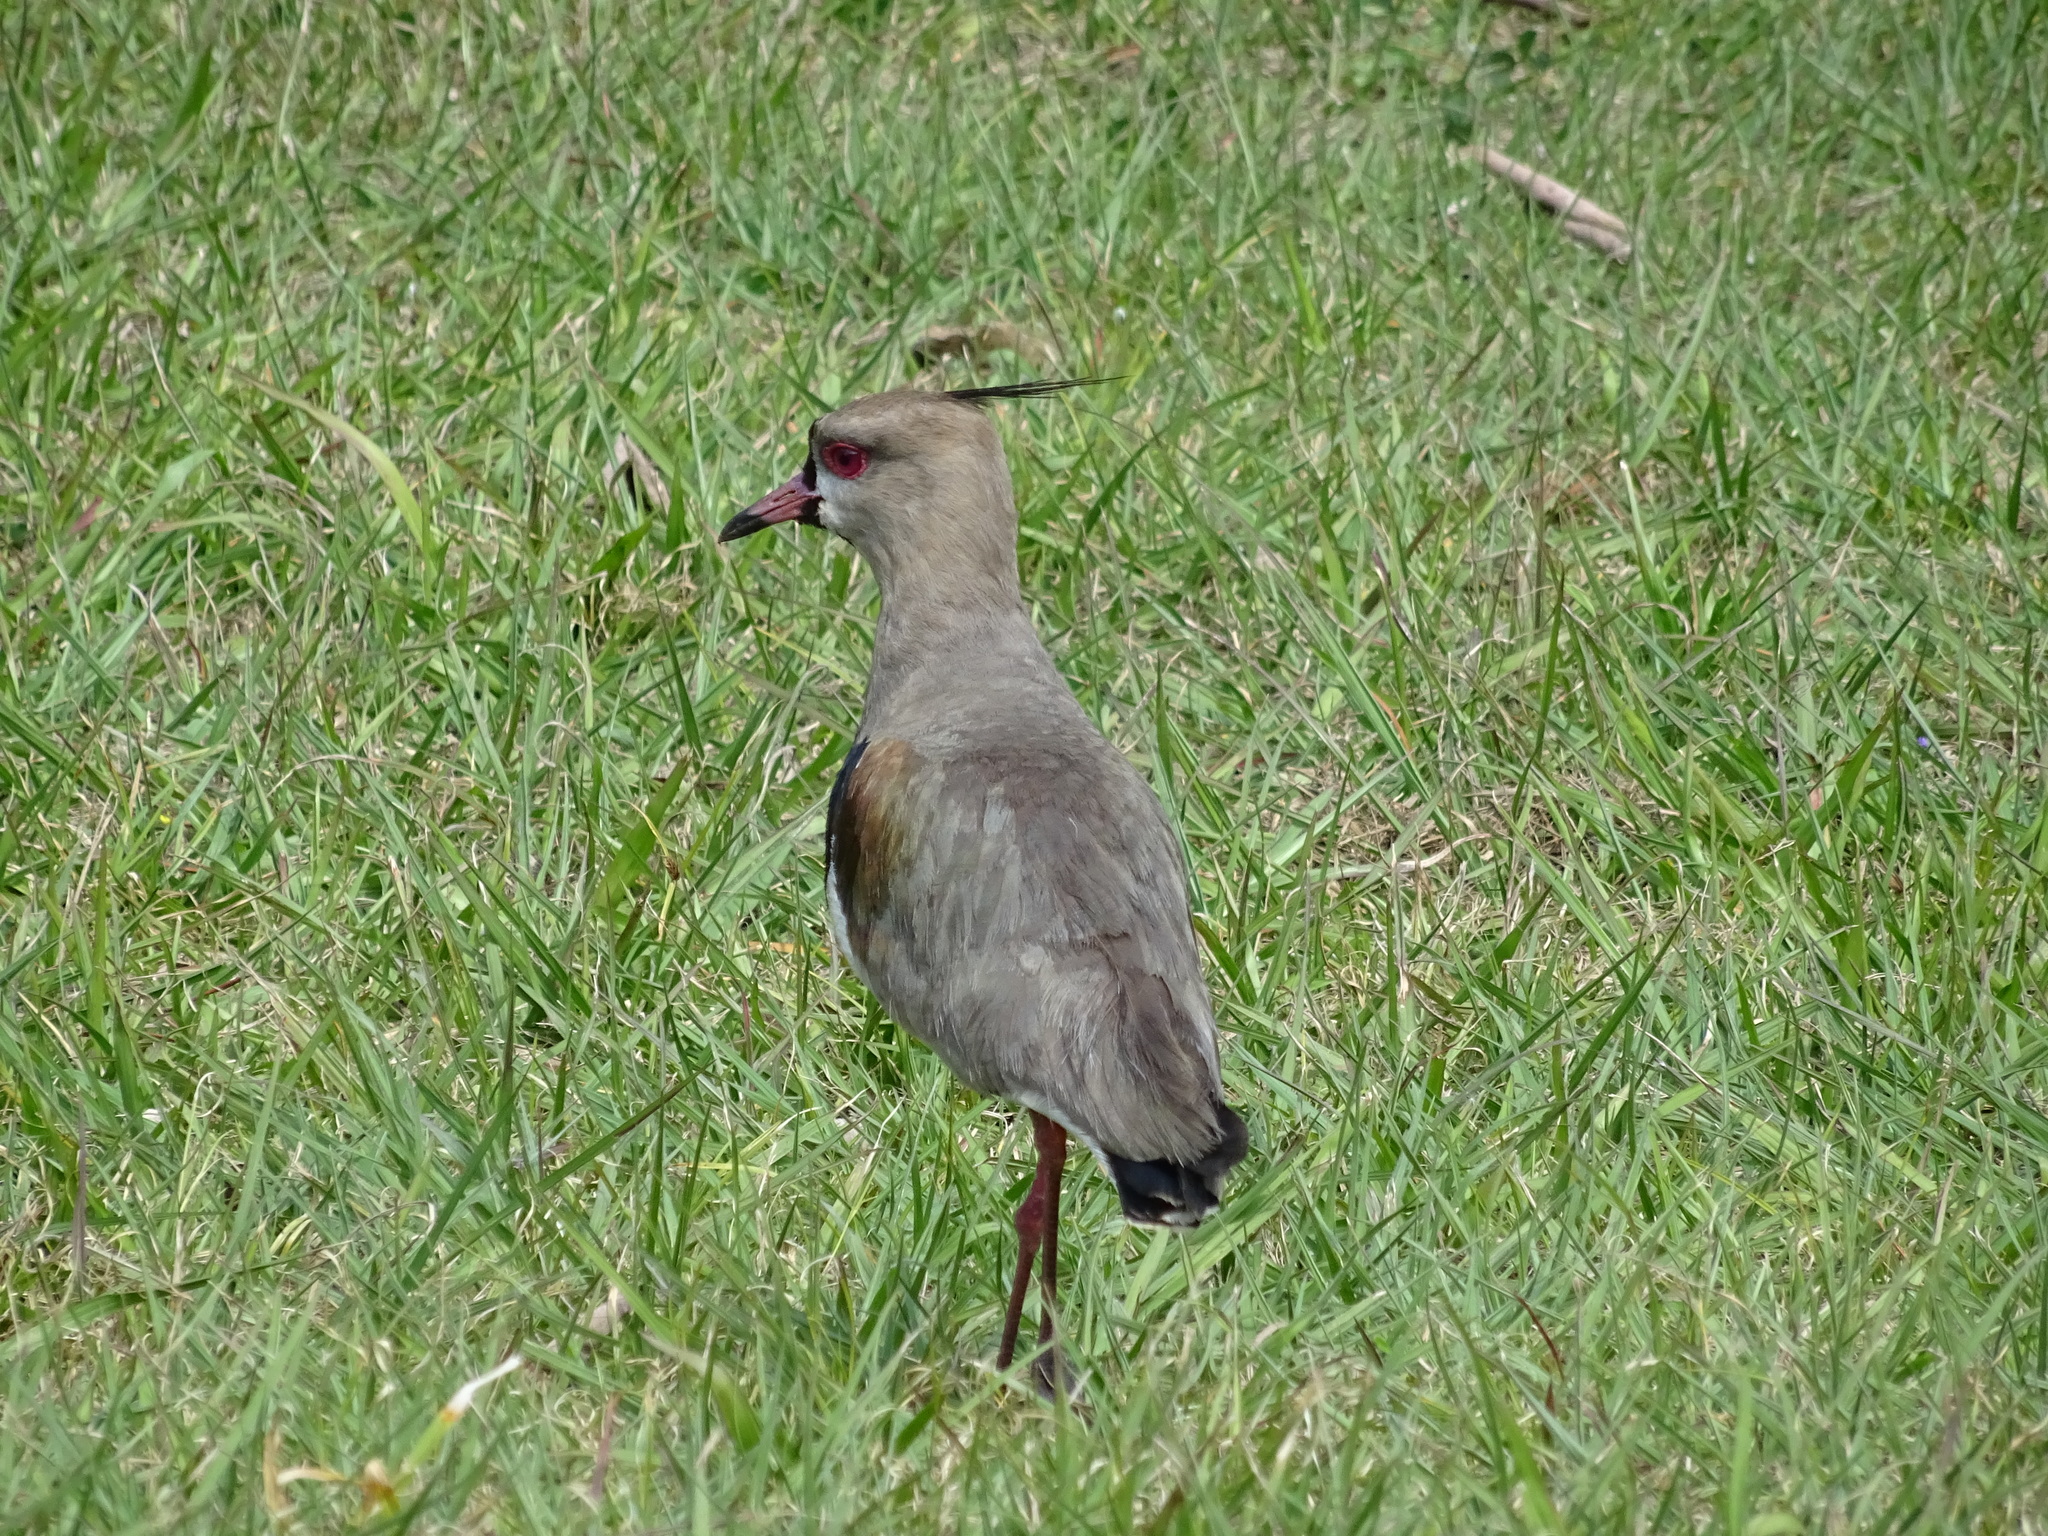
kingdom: Animalia
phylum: Chordata
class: Aves
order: Charadriiformes
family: Charadriidae
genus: Vanellus
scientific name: Vanellus chilensis
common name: Southern lapwing
